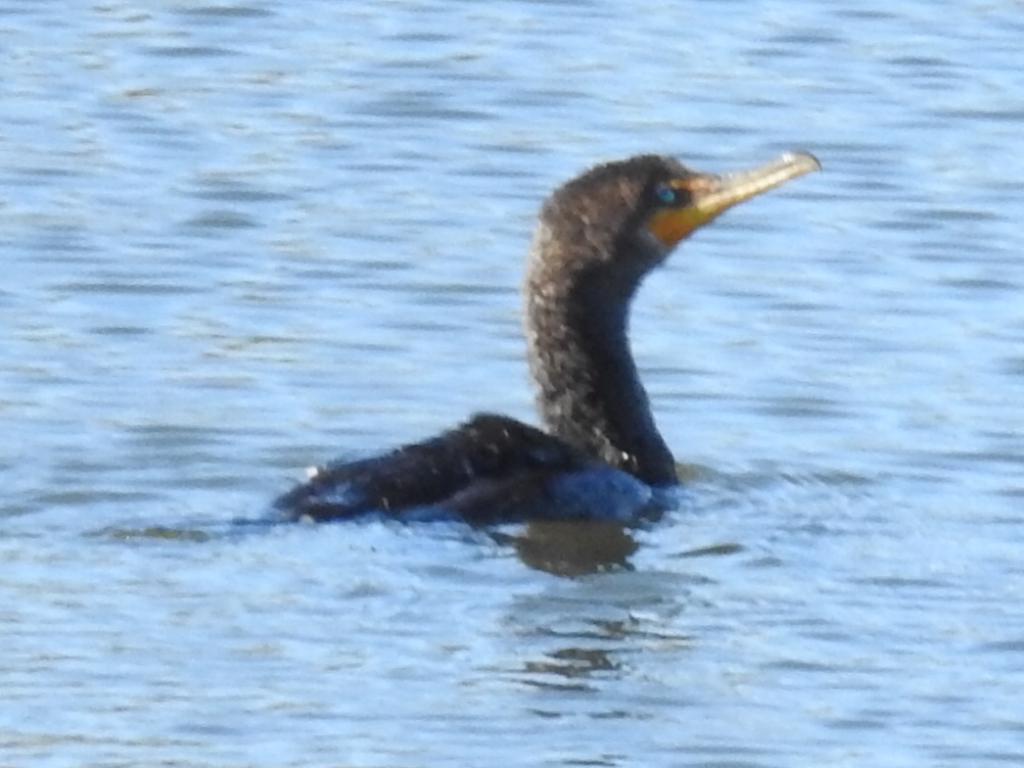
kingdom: Animalia
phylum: Chordata
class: Aves
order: Suliformes
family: Phalacrocoracidae
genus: Phalacrocorax
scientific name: Phalacrocorax auritus
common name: Double-crested cormorant
